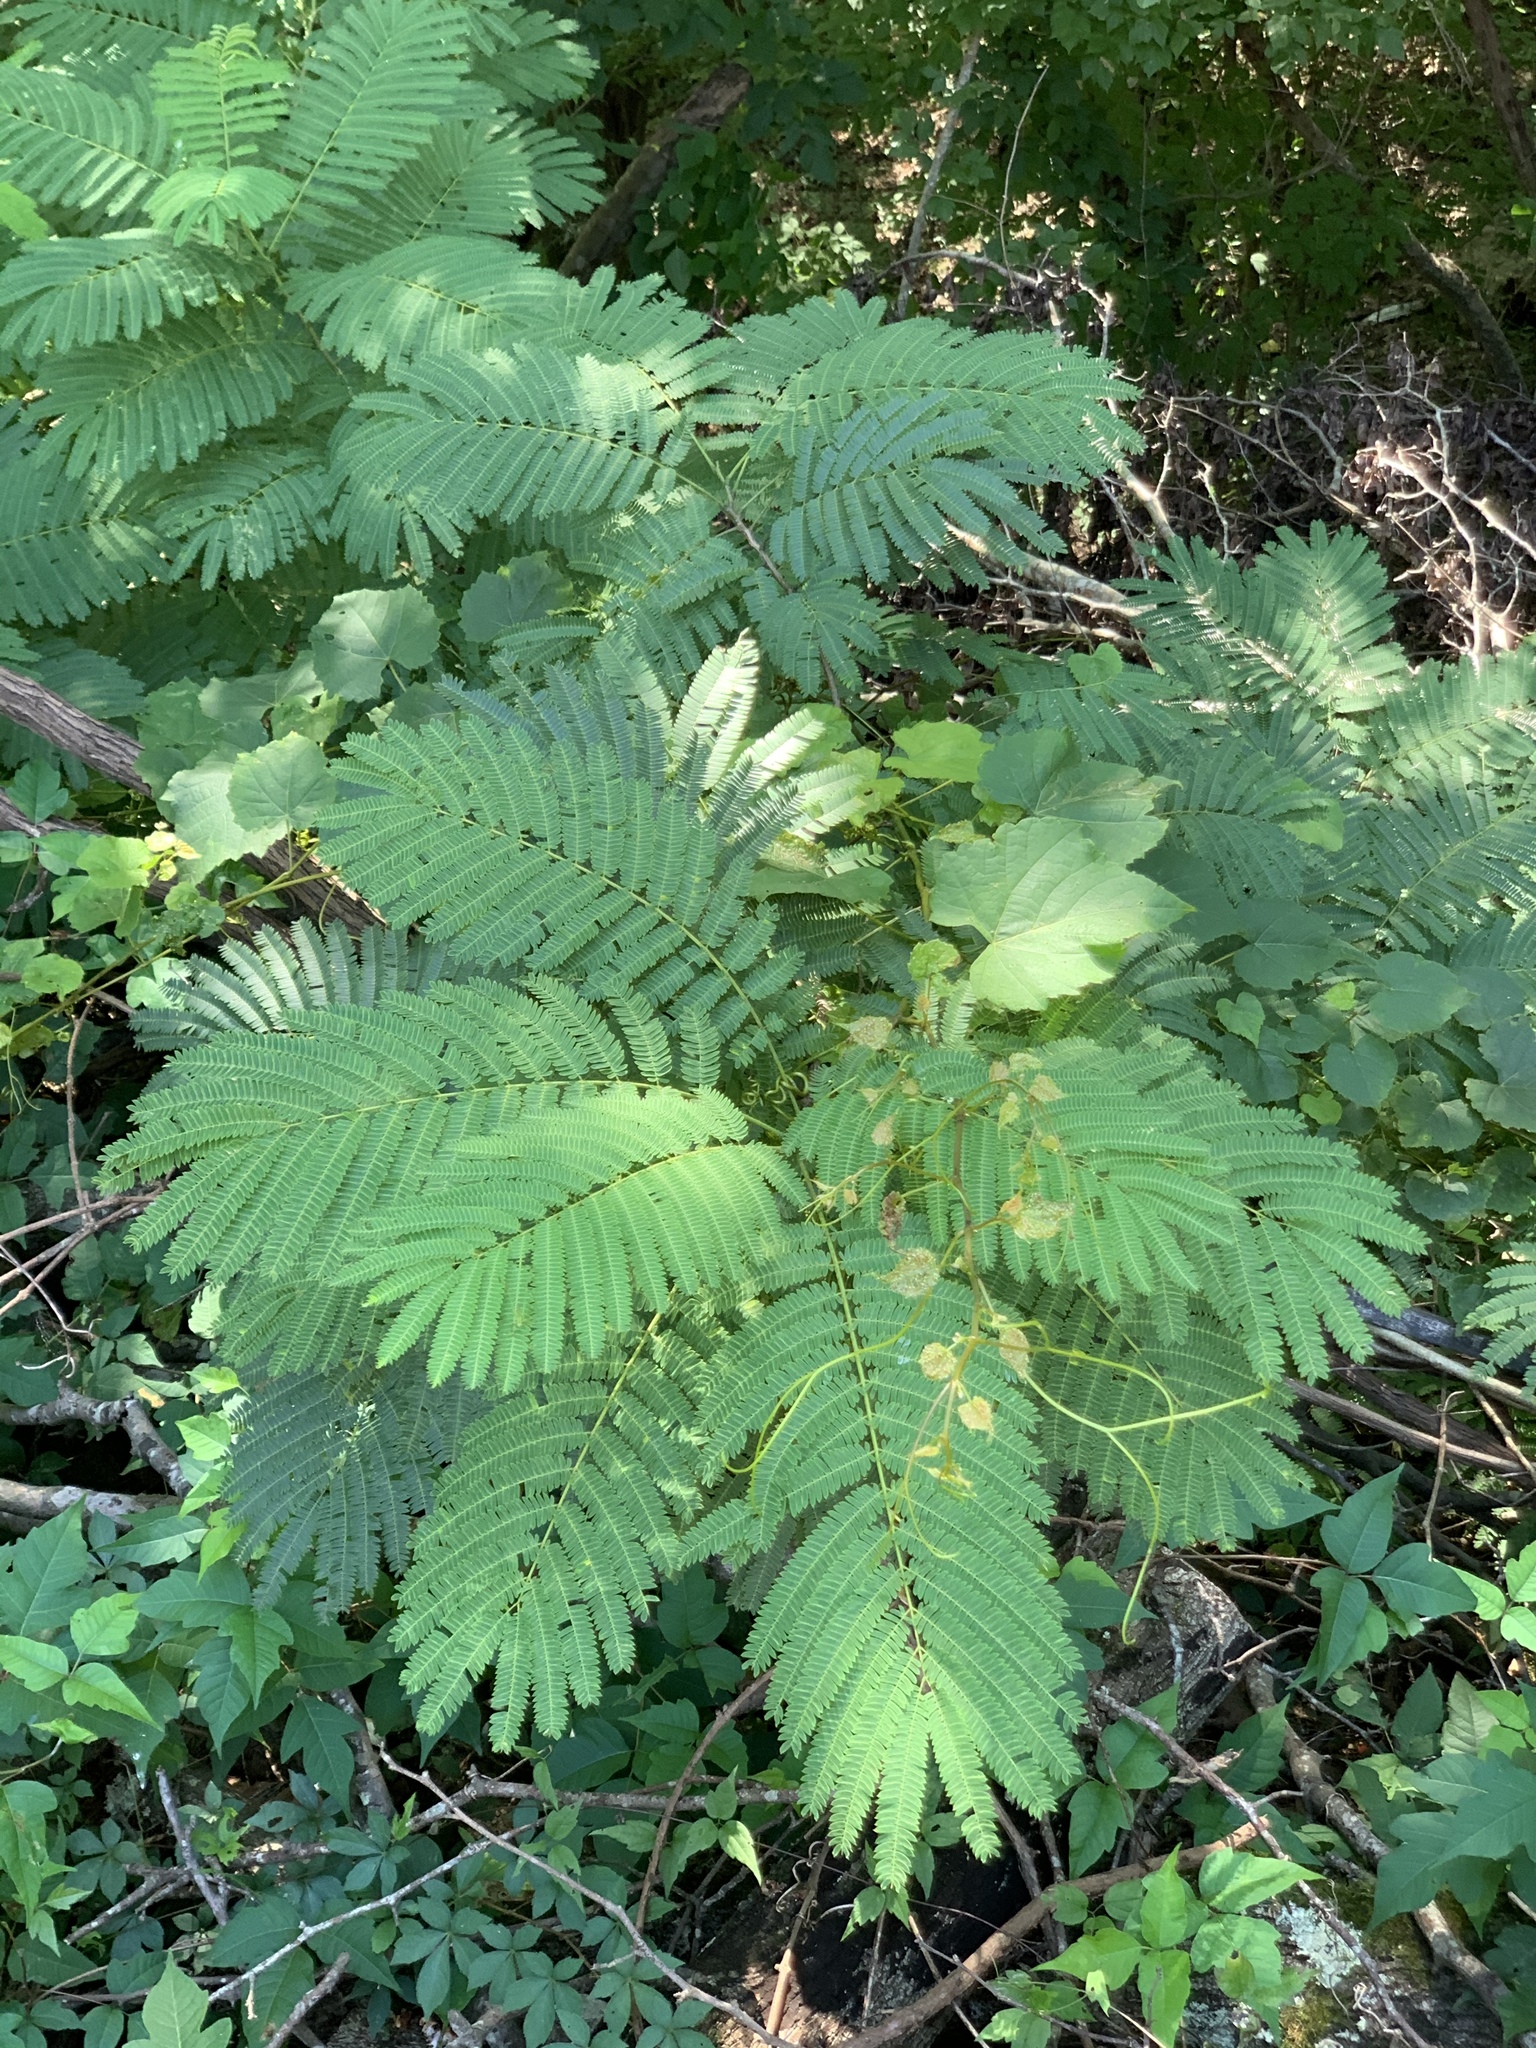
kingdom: Plantae
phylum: Tracheophyta
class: Magnoliopsida
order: Fabales
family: Fabaceae
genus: Albizia
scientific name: Albizia julibrissin
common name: Silktree
